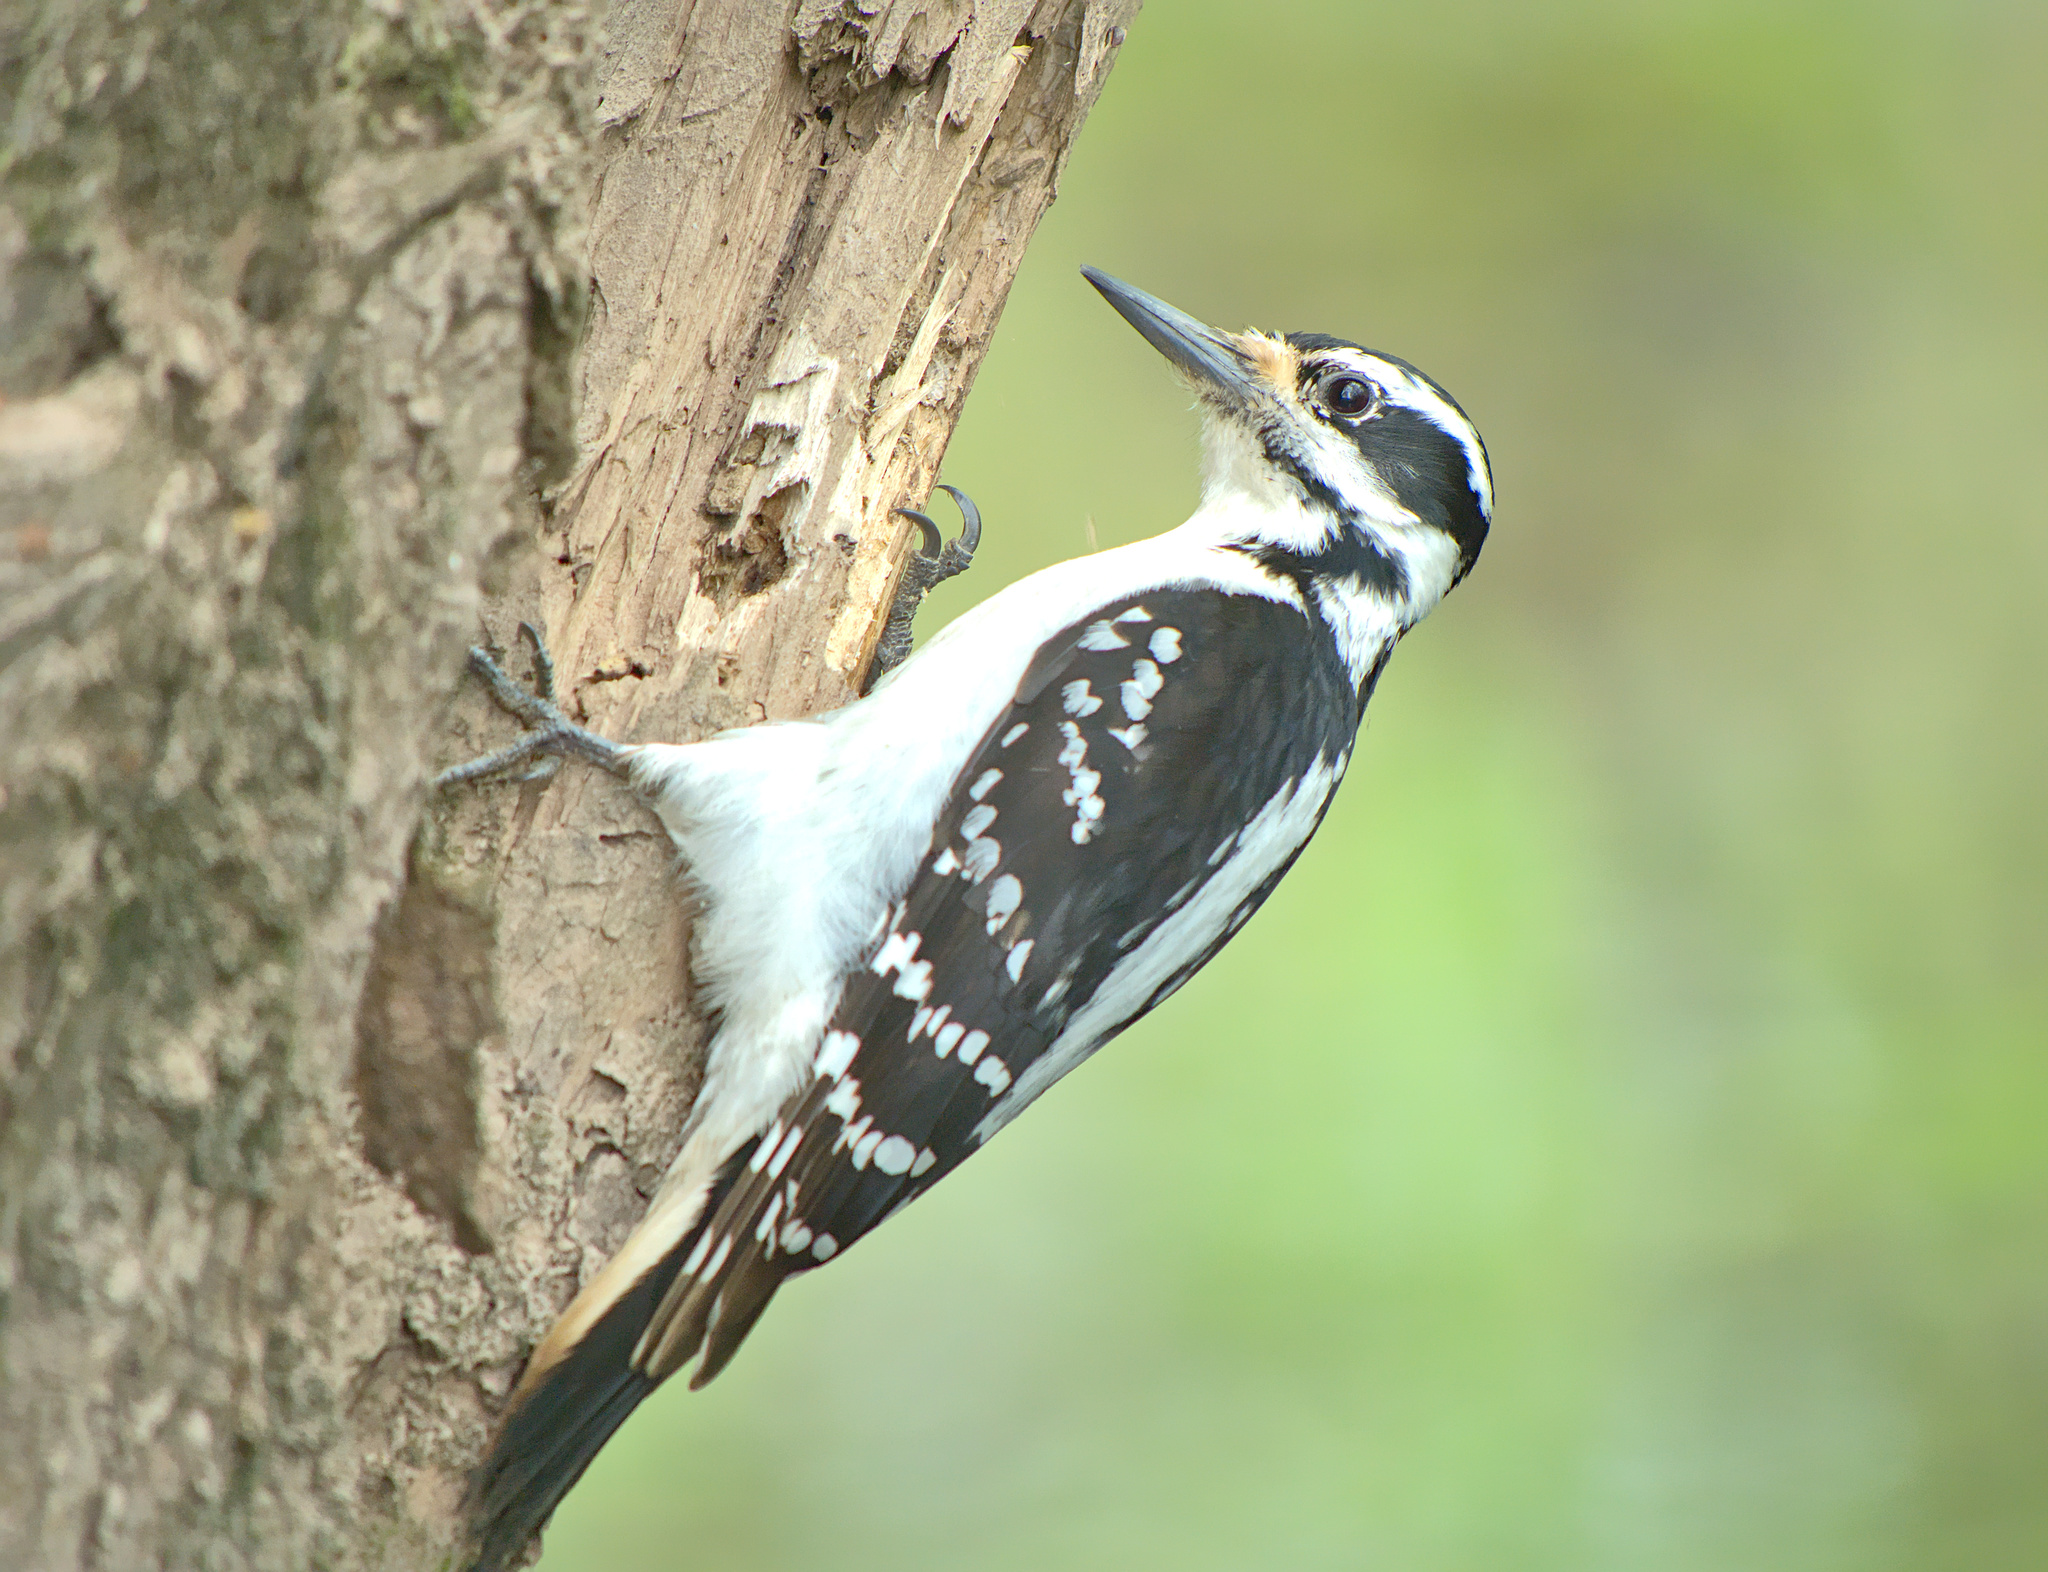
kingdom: Animalia
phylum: Chordata
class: Aves
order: Piciformes
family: Picidae
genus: Leuconotopicus
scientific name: Leuconotopicus villosus
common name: Hairy woodpecker
